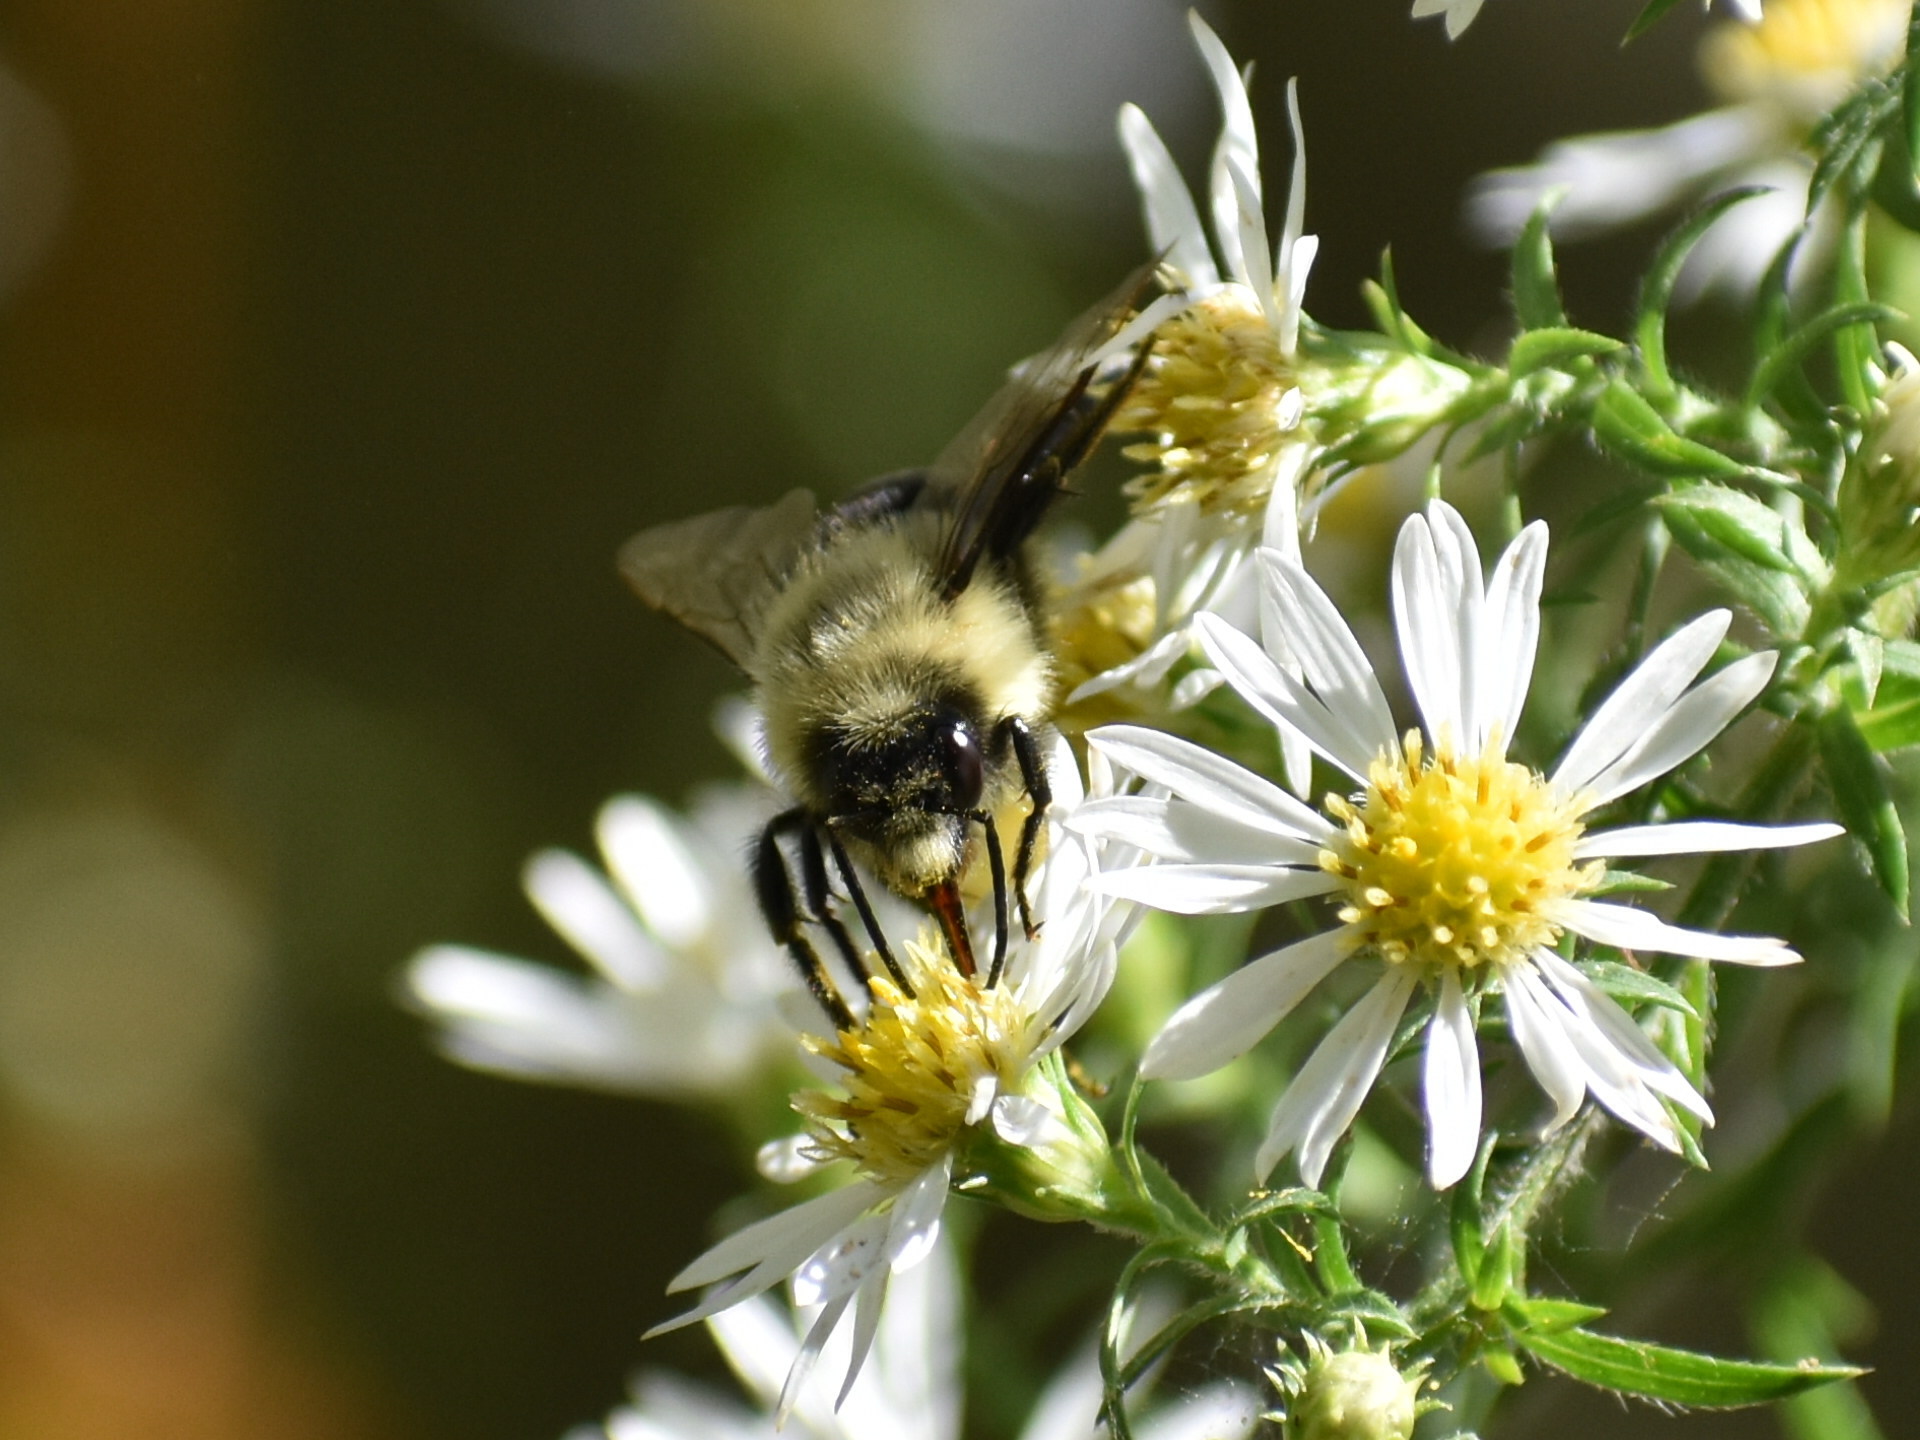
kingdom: Animalia
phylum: Arthropoda
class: Insecta
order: Hymenoptera
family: Apidae
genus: Bombus
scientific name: Bombus impatiens
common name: Common eastern bumble bee
